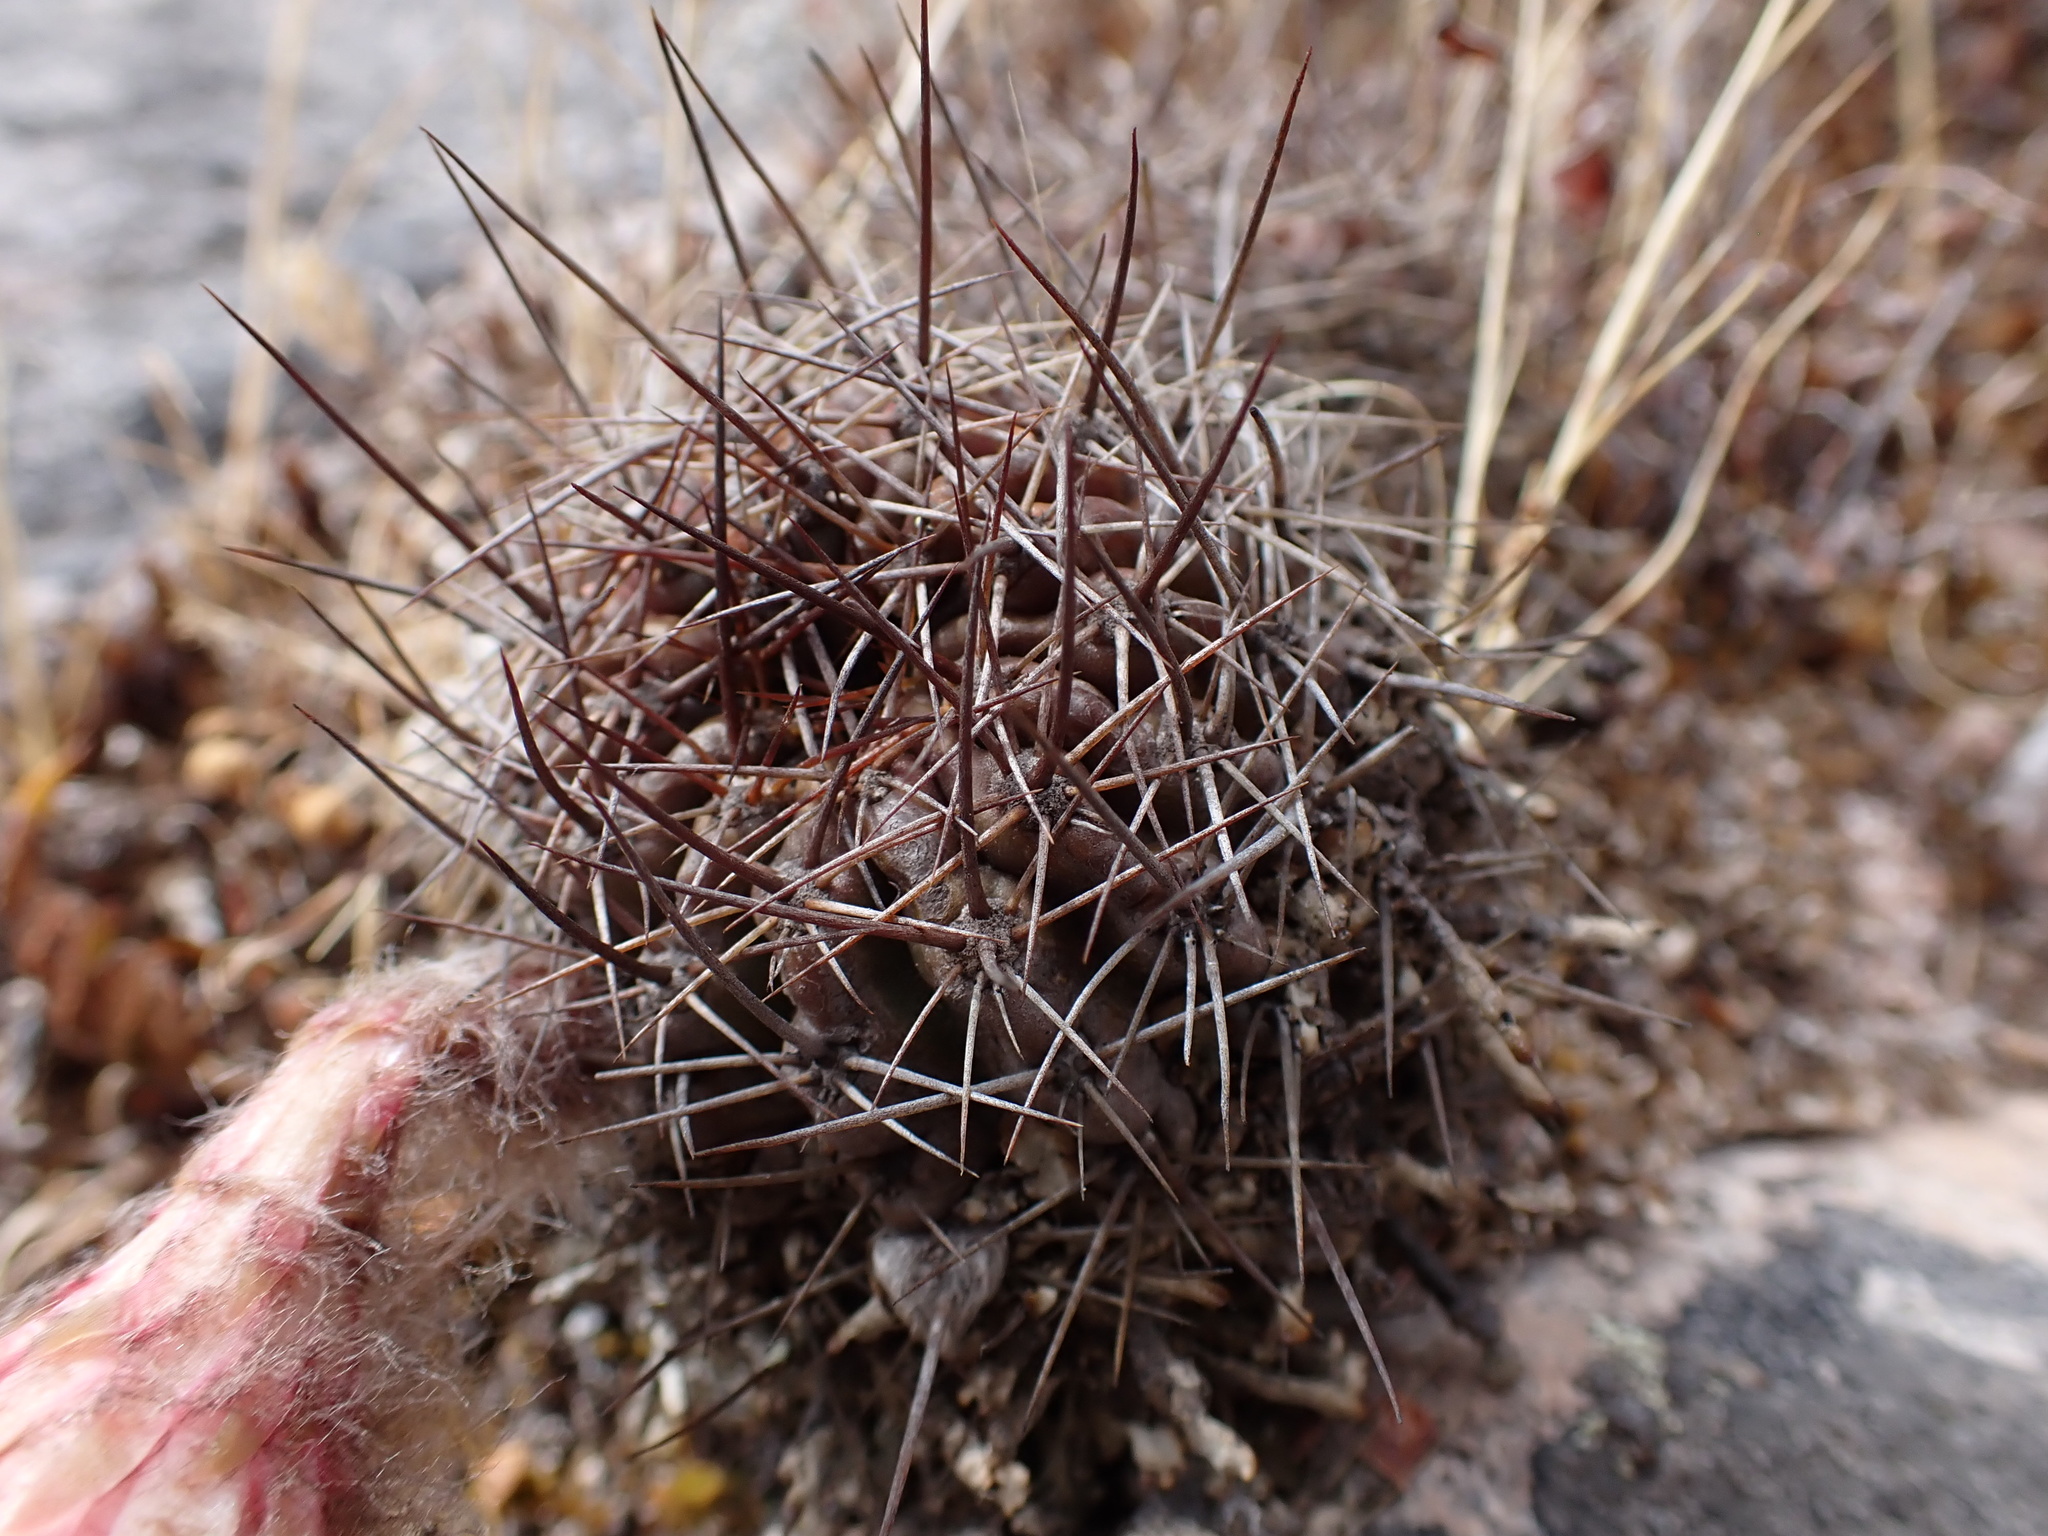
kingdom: Plantae
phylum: Tracheophyta
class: Magnoliopsida
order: Caryophyllales
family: Cactaceae
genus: Lobivia
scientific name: Lobivia hertrichiana
